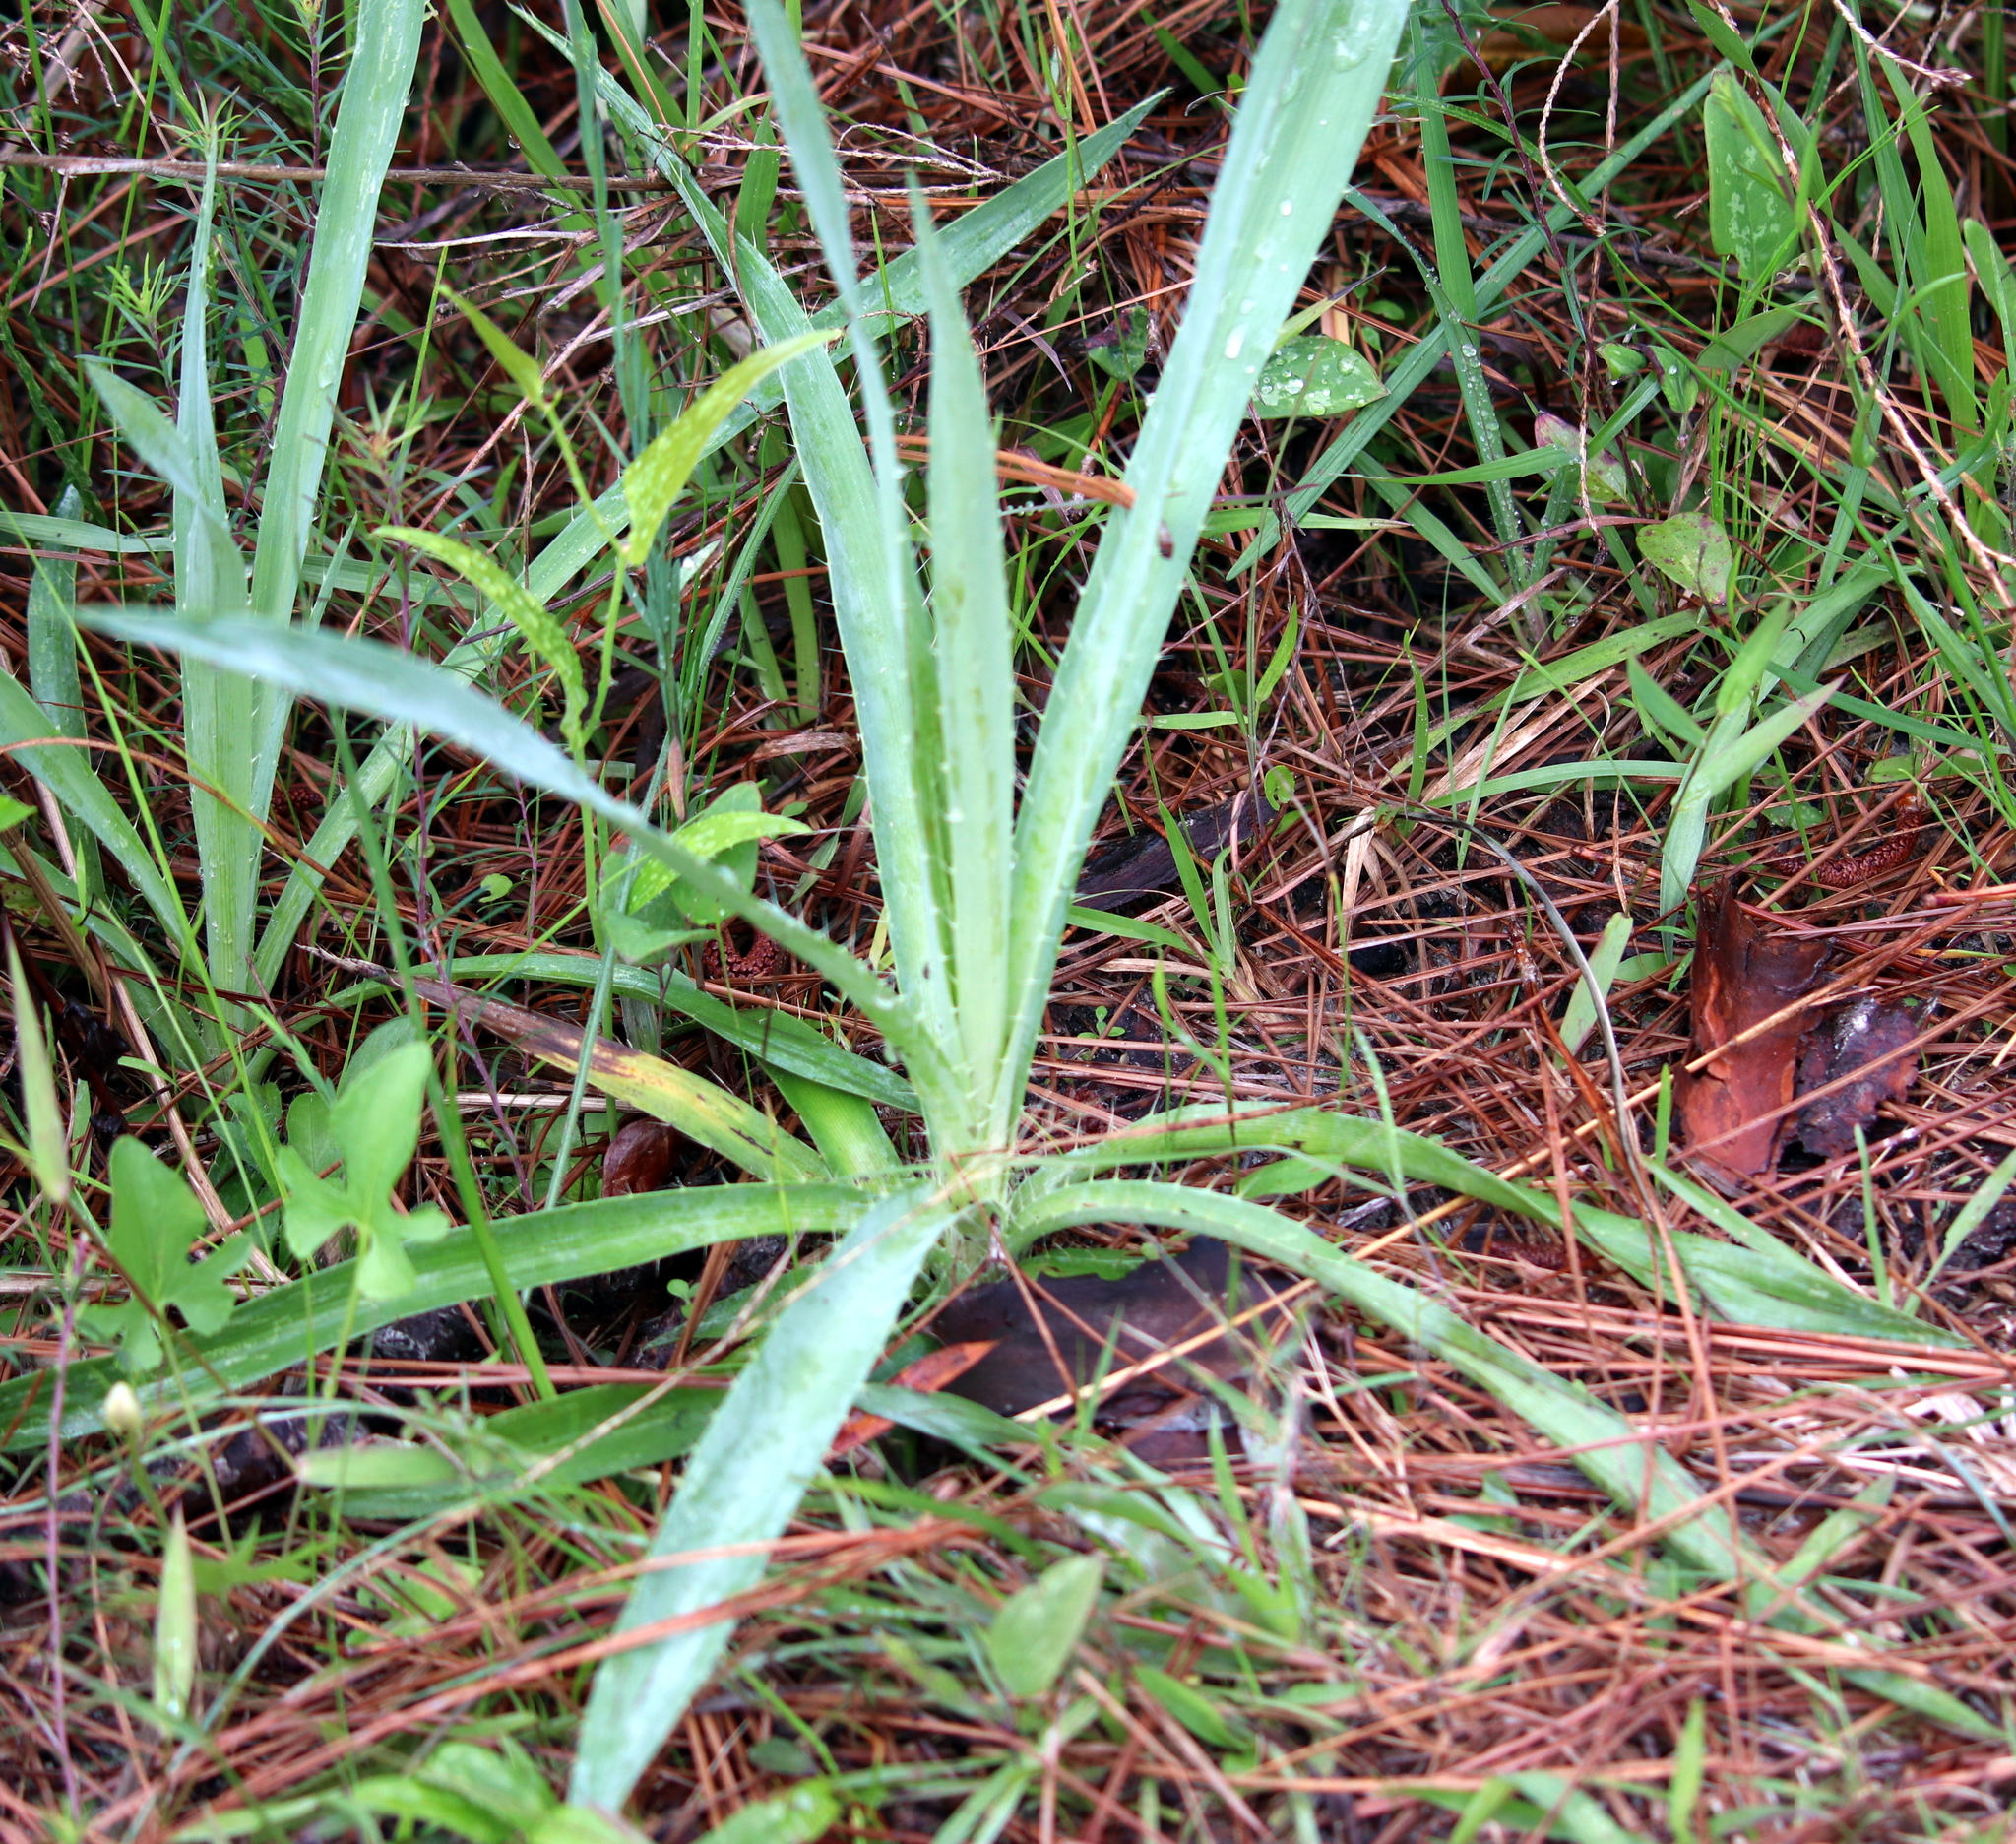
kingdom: Plantae
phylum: Tracheophyta
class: Magnoliopsida
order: Apiales
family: Apiaceae
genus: Eryngium
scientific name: Eryngium yuccifolium
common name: Button eryngo
